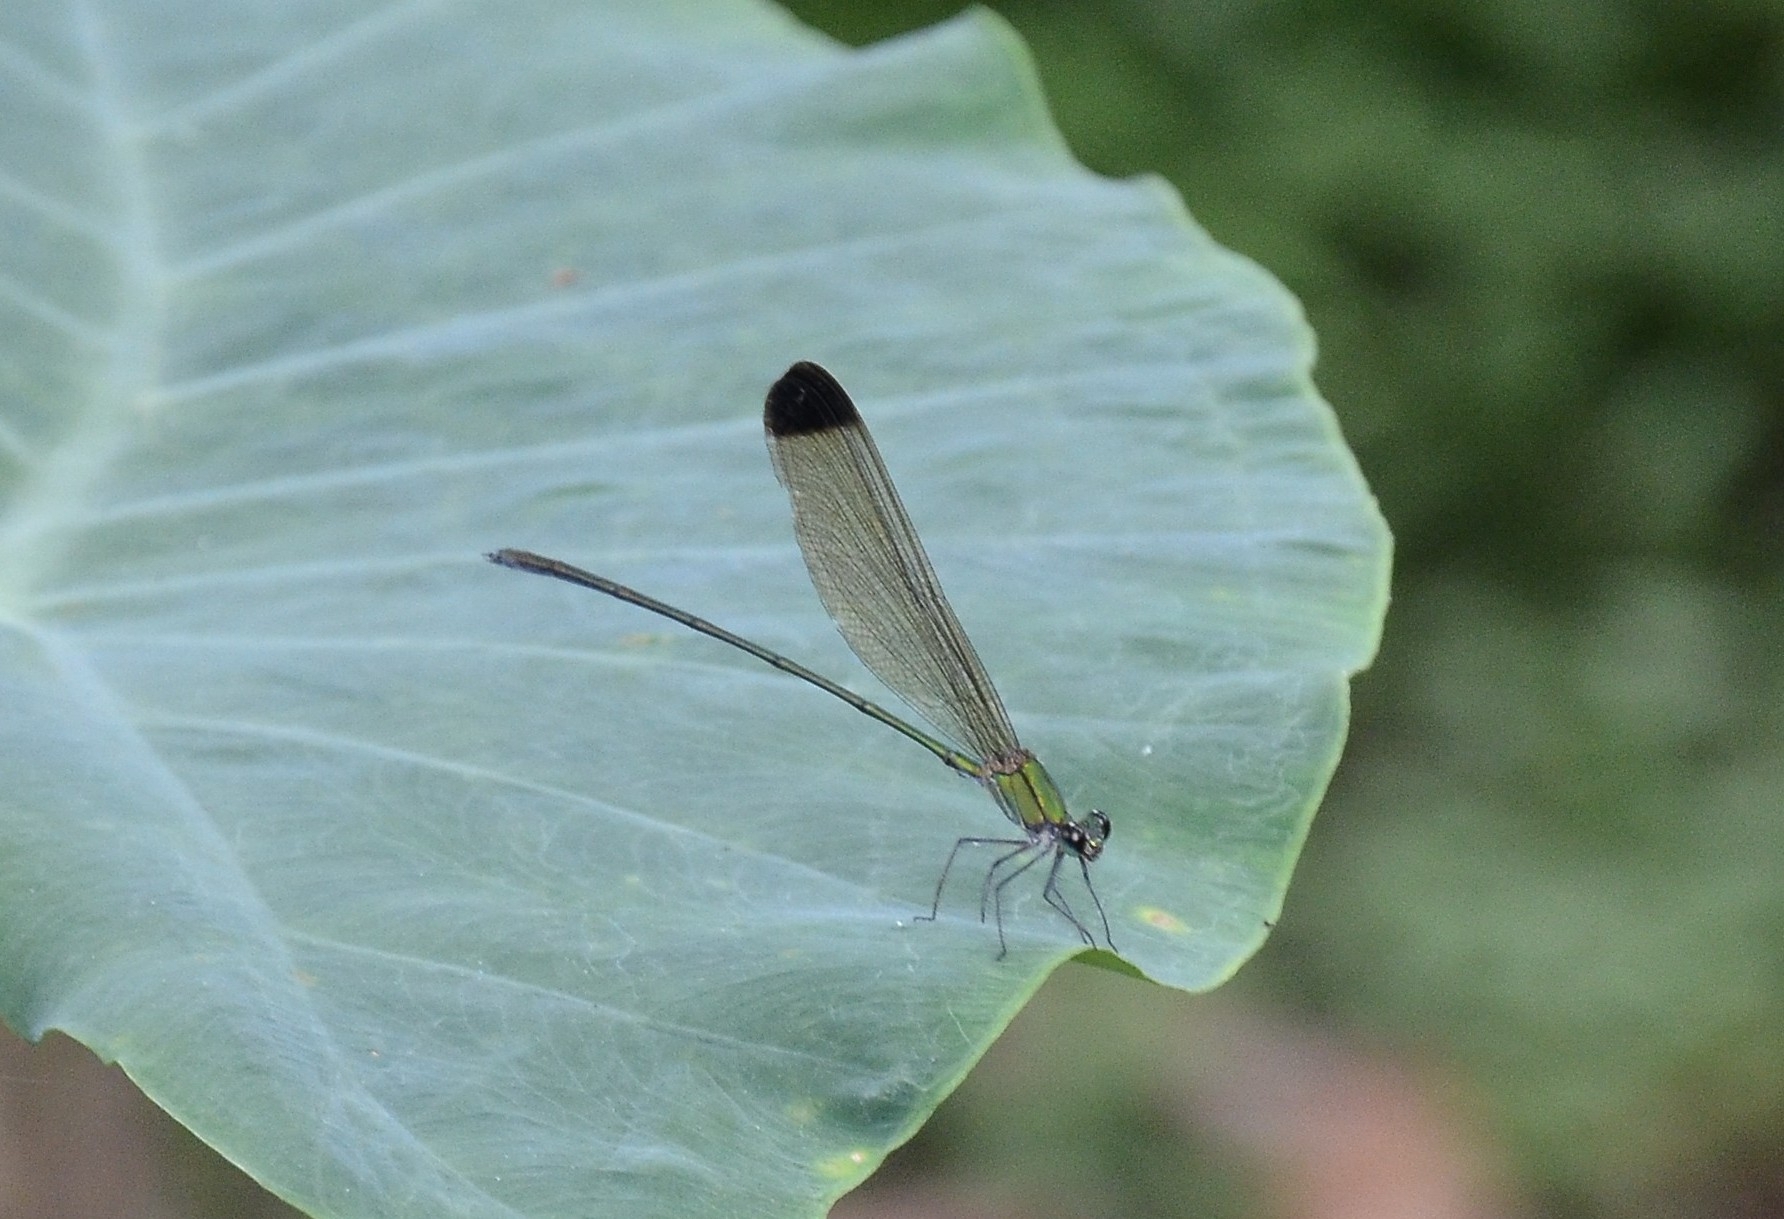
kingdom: Animalia
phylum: Arthropoda
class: Insecta
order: Odonata
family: Calopterygidae
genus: Vestalis
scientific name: Vestalis apicalis
